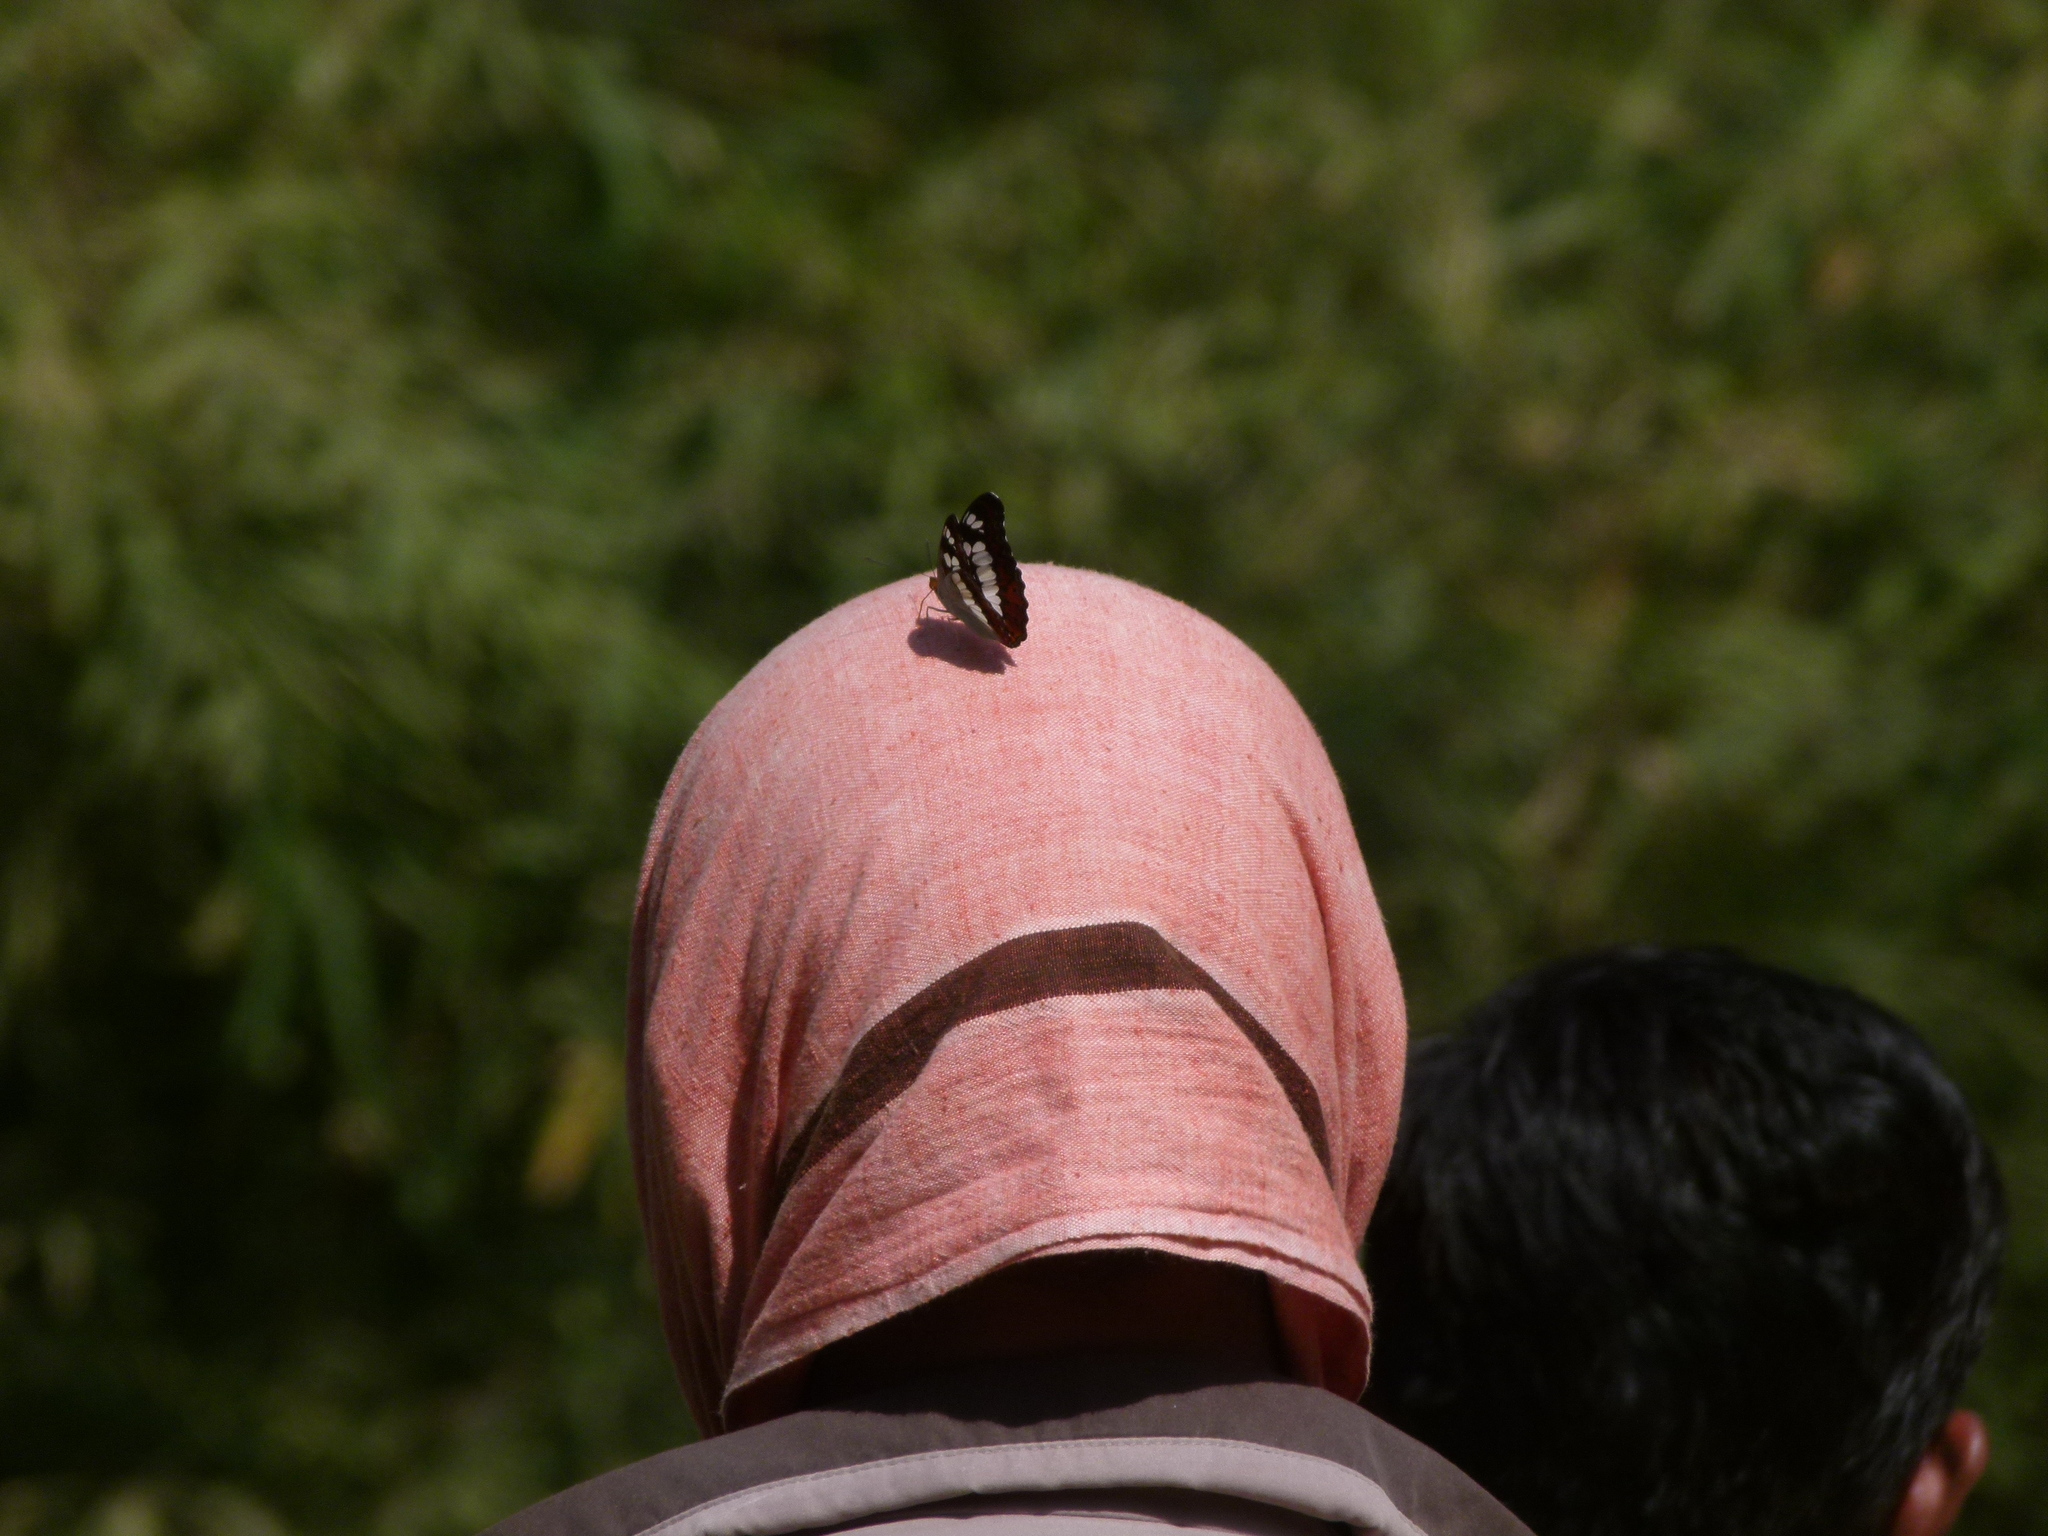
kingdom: Animalia
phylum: Arthropoda
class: Insecta
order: Lepidoptera
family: Nymphalidae
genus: Limenitis
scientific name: Limenitis Moduza procris
